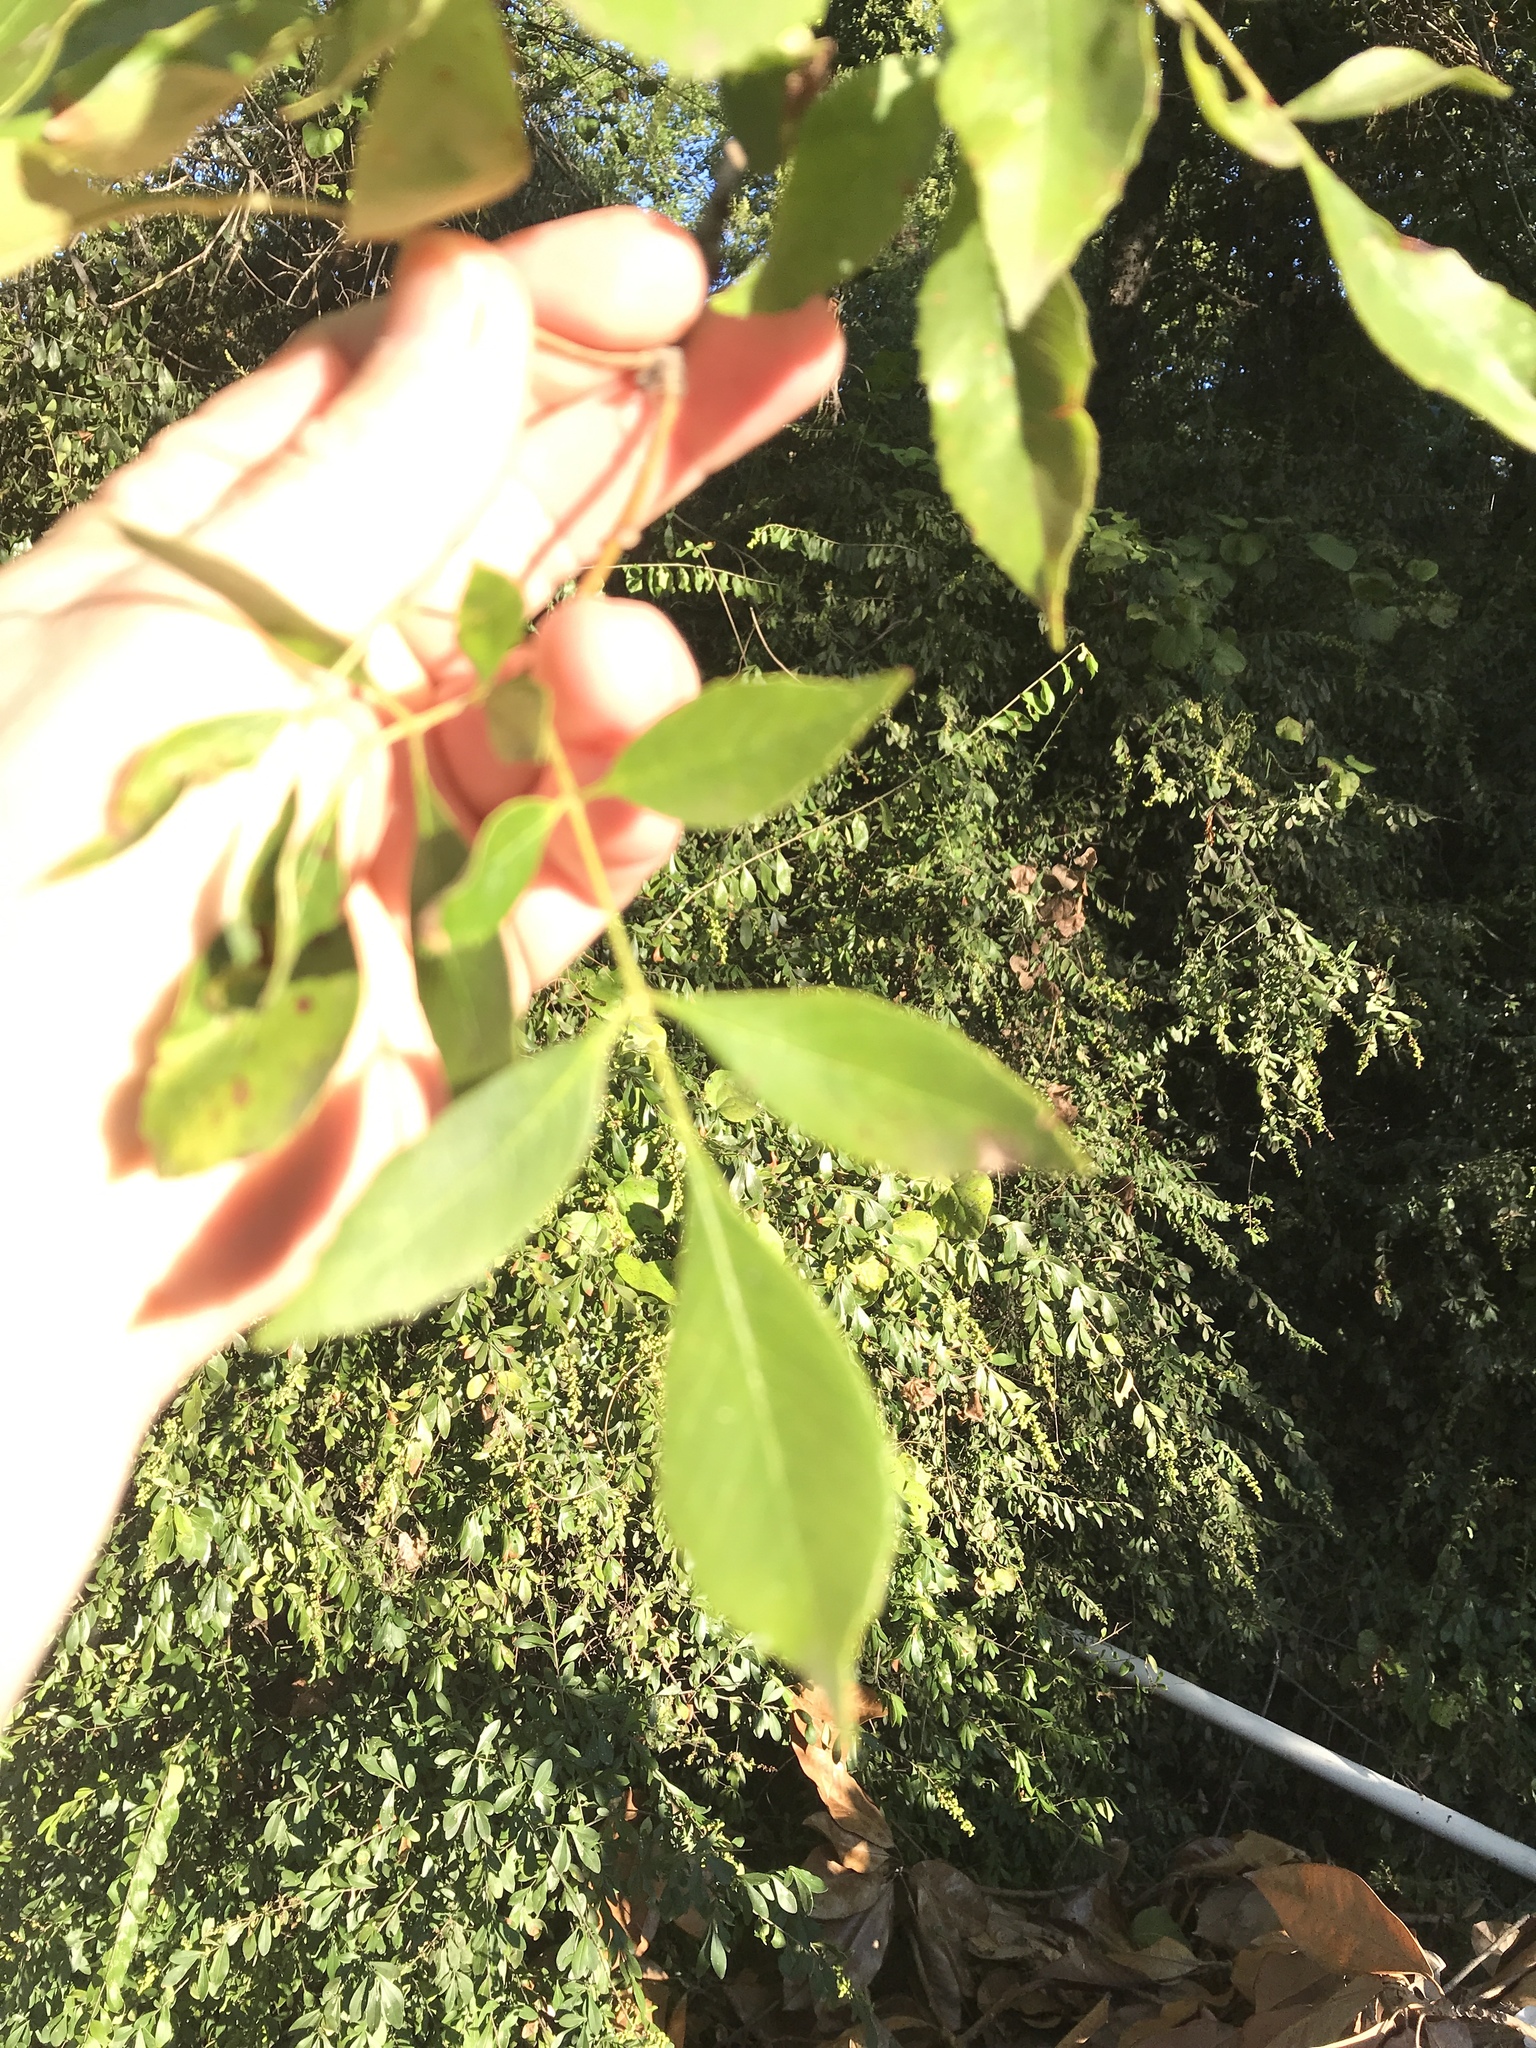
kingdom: Plantae
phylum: Tracheophyta
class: Magnoliopsida
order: Lamiales
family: Oleaceae
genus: Fraxinus
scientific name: Fraxinus pennsylvanica
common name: Green ash
